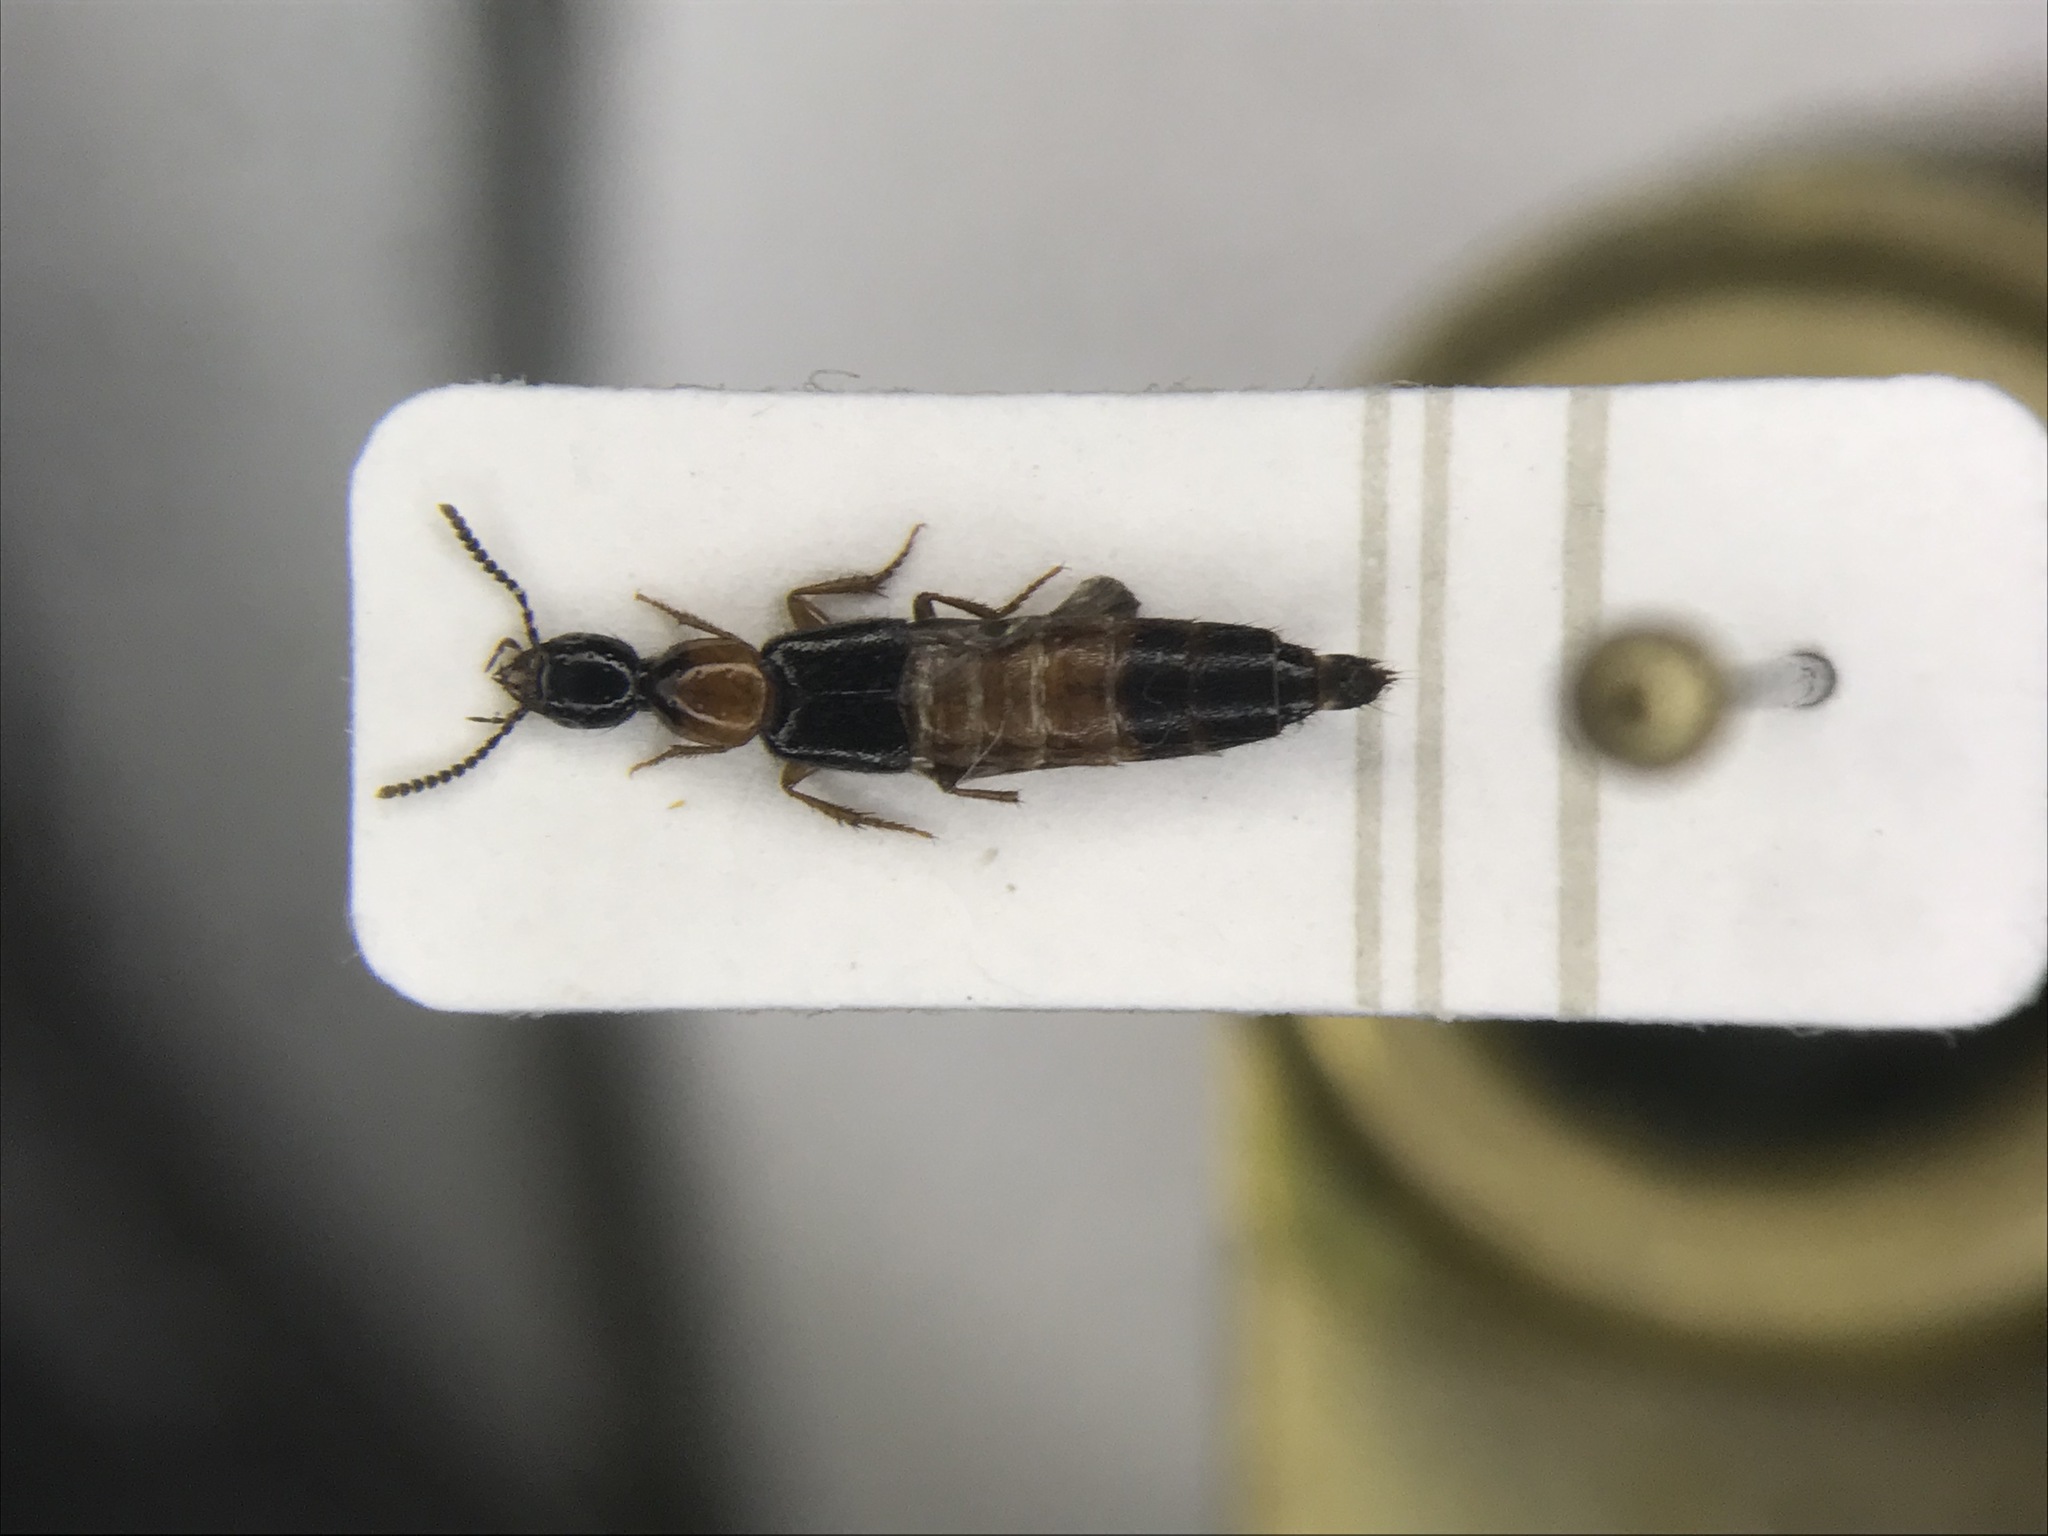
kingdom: Animalia
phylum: Arthropoda
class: Insecta
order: Coleoptera
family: Staphylinidae
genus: Bisnius
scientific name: Bisnius blandus
